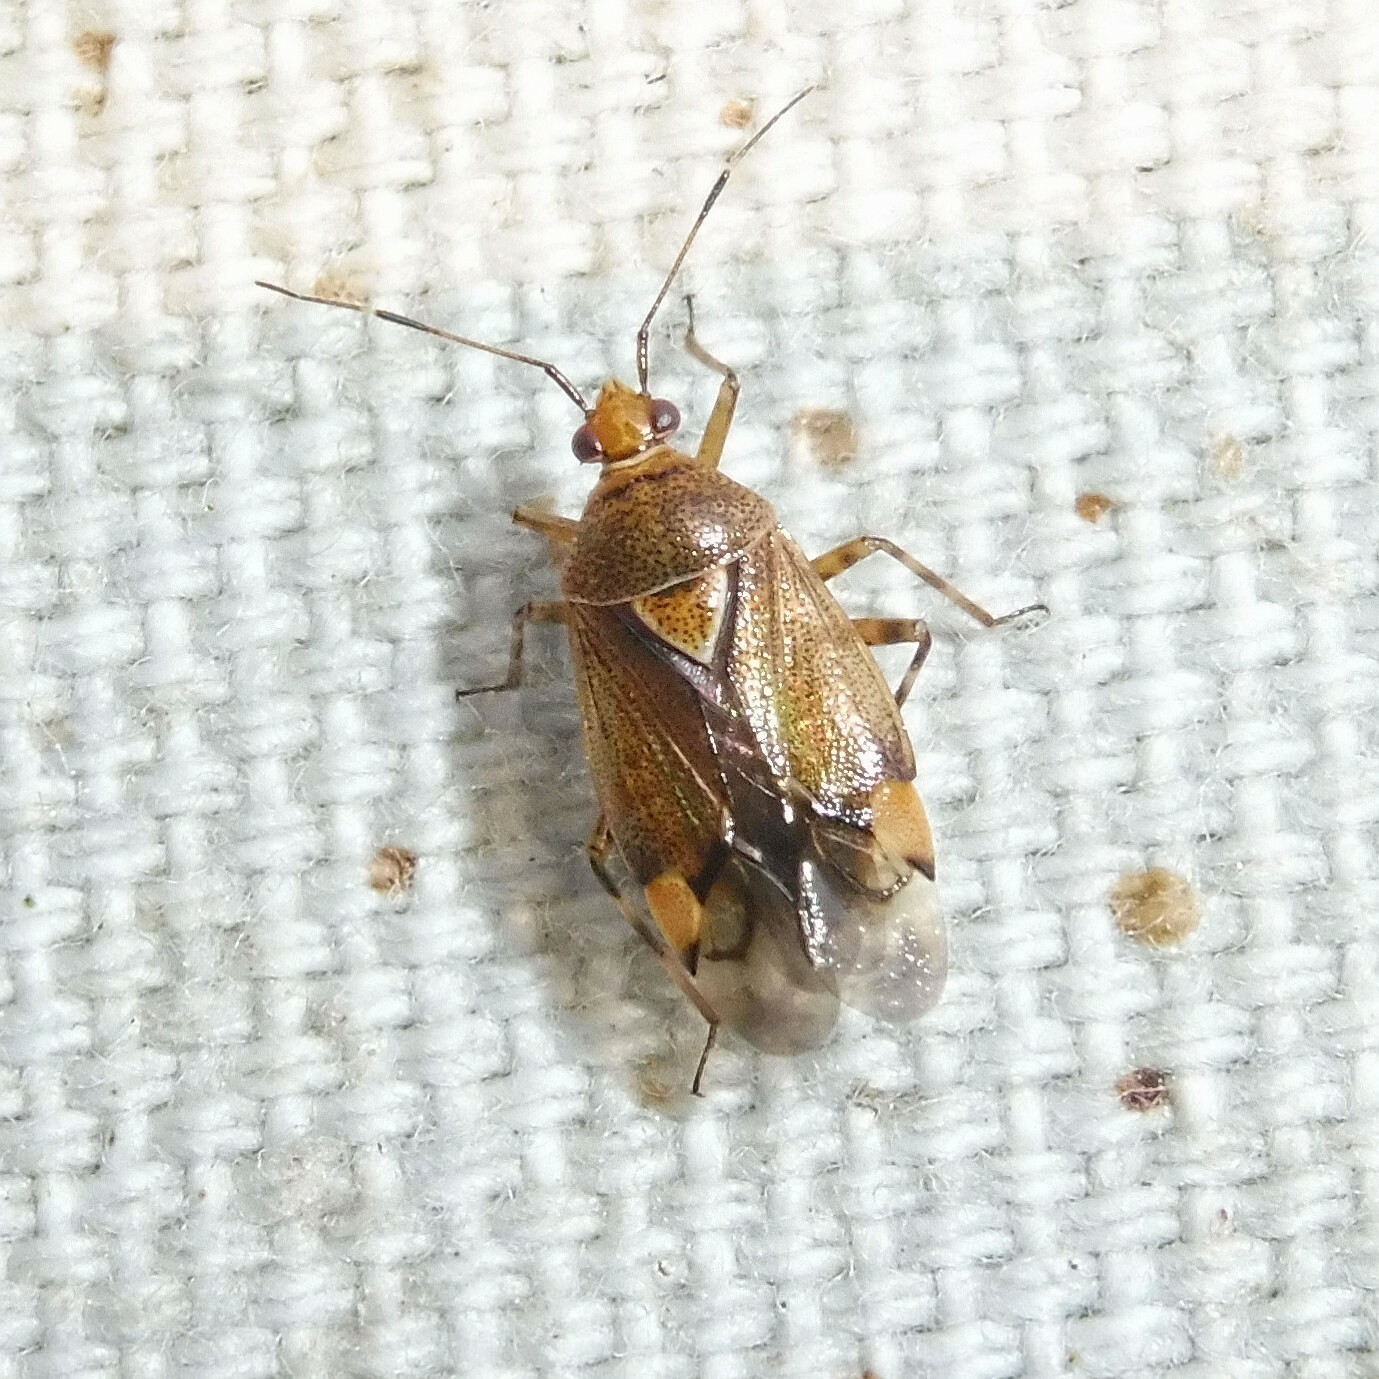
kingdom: Animalia
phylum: Arthropoda
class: Insecta
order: Hemiptera
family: Miridae
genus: Deraeocoris
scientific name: Deraeocoris flavilinea
